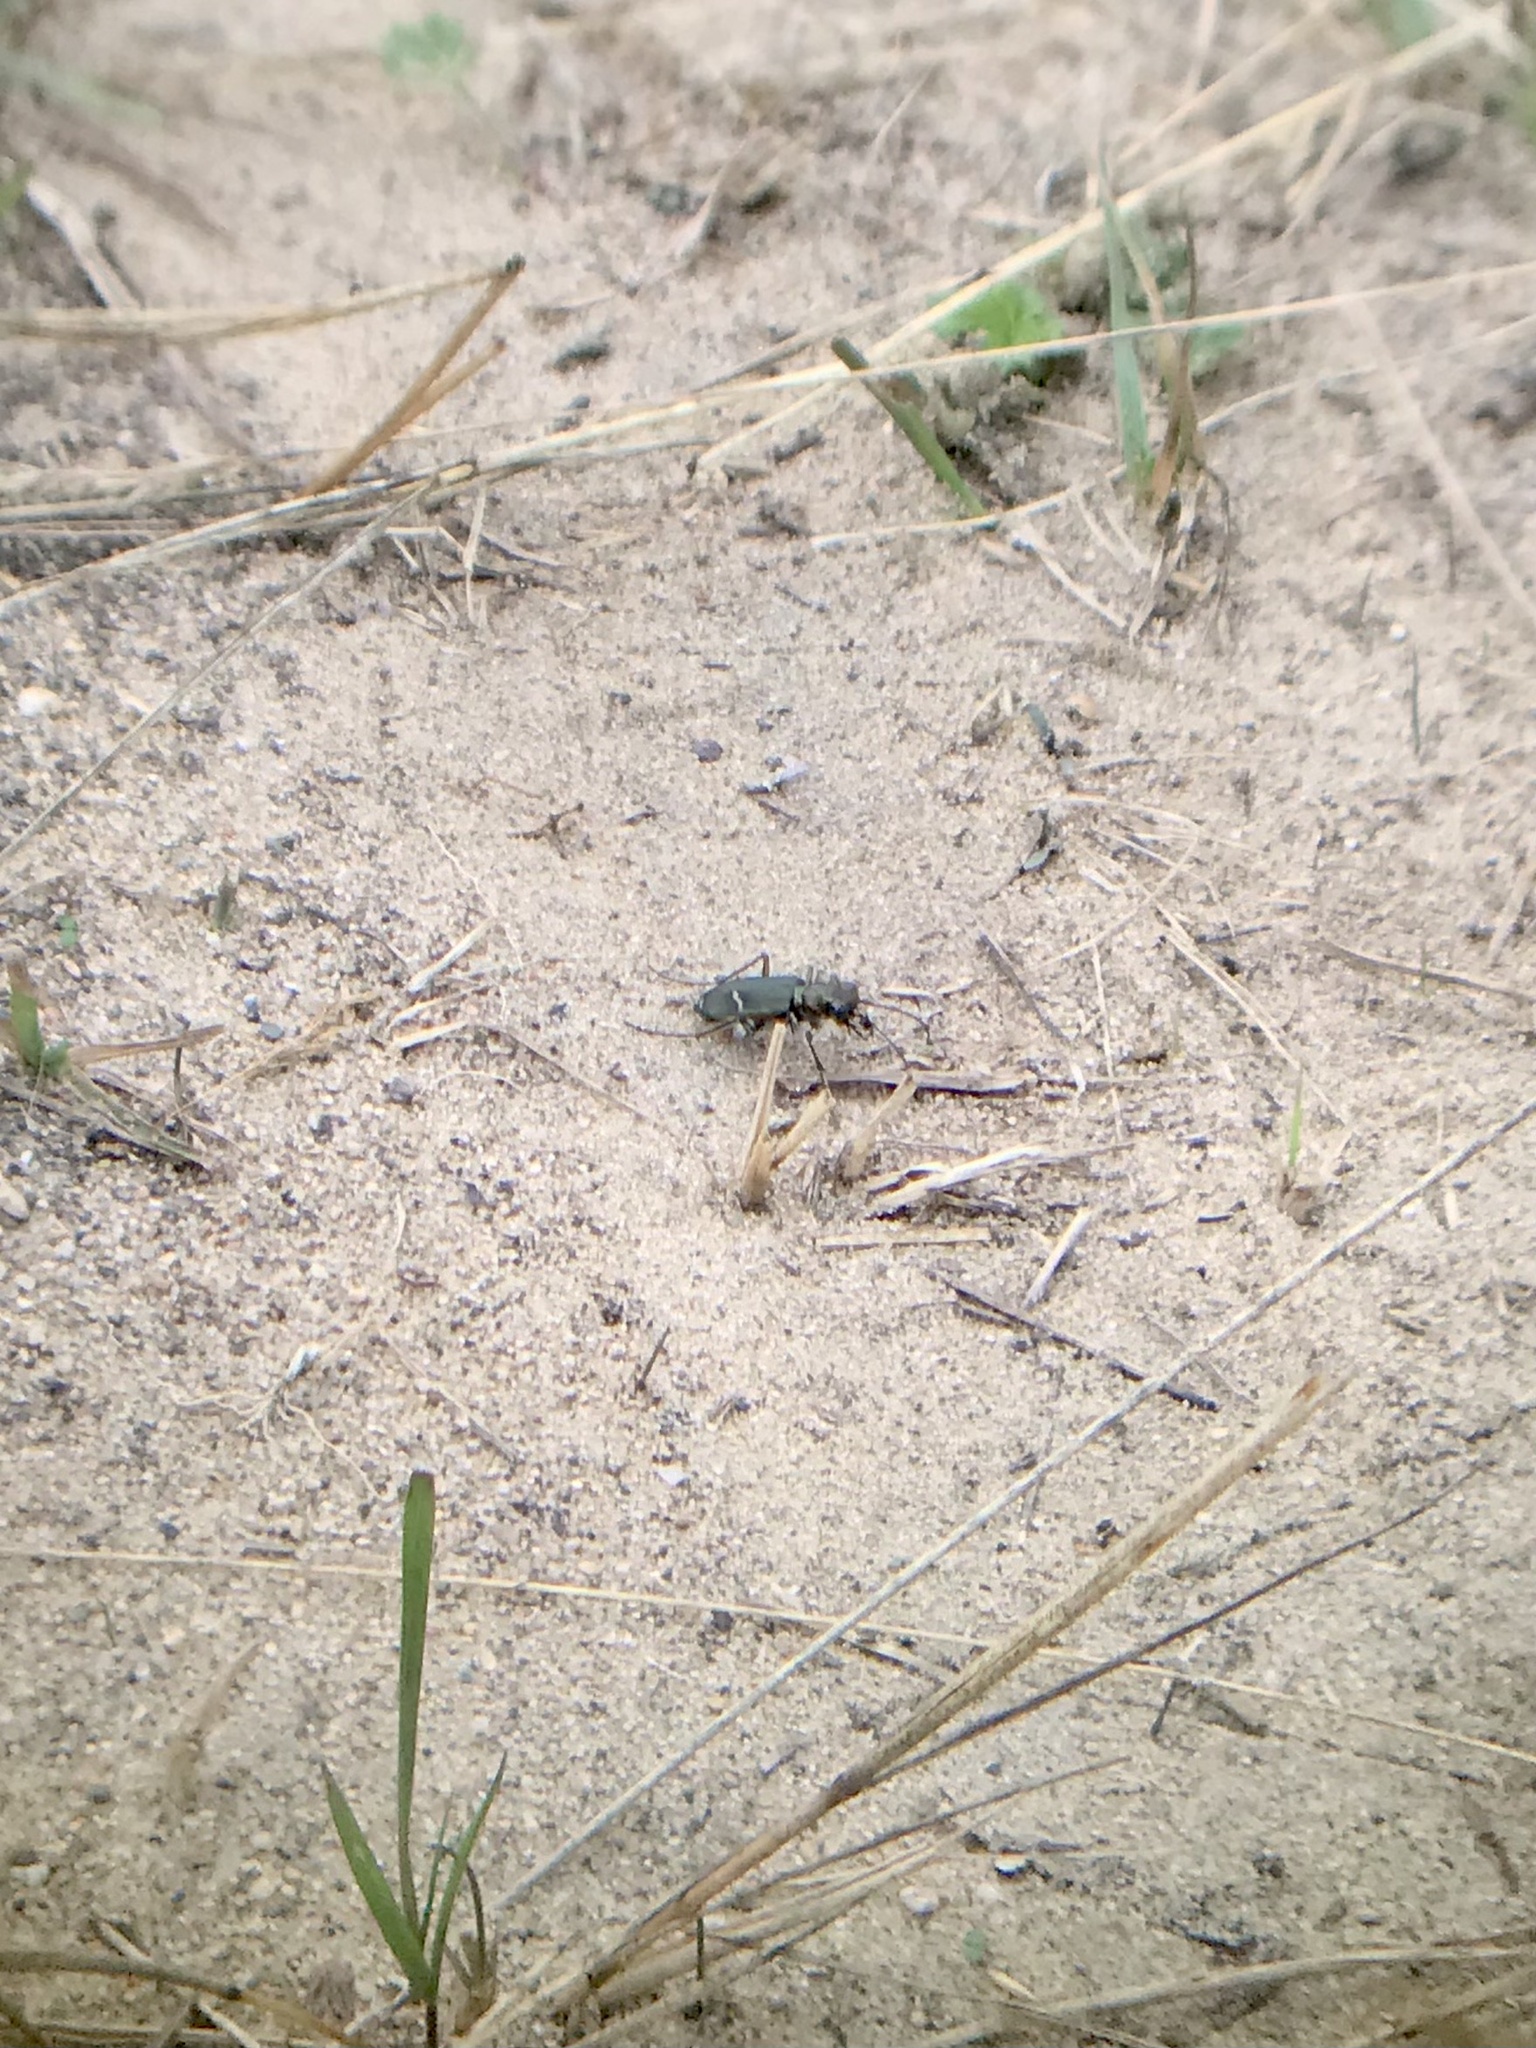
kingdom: Animalia
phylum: Arthropoda
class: Insecta
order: Coleoptera
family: Carabidae
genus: Cicindela
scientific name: Cicindela purpurea
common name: Cow path tiger beetle
